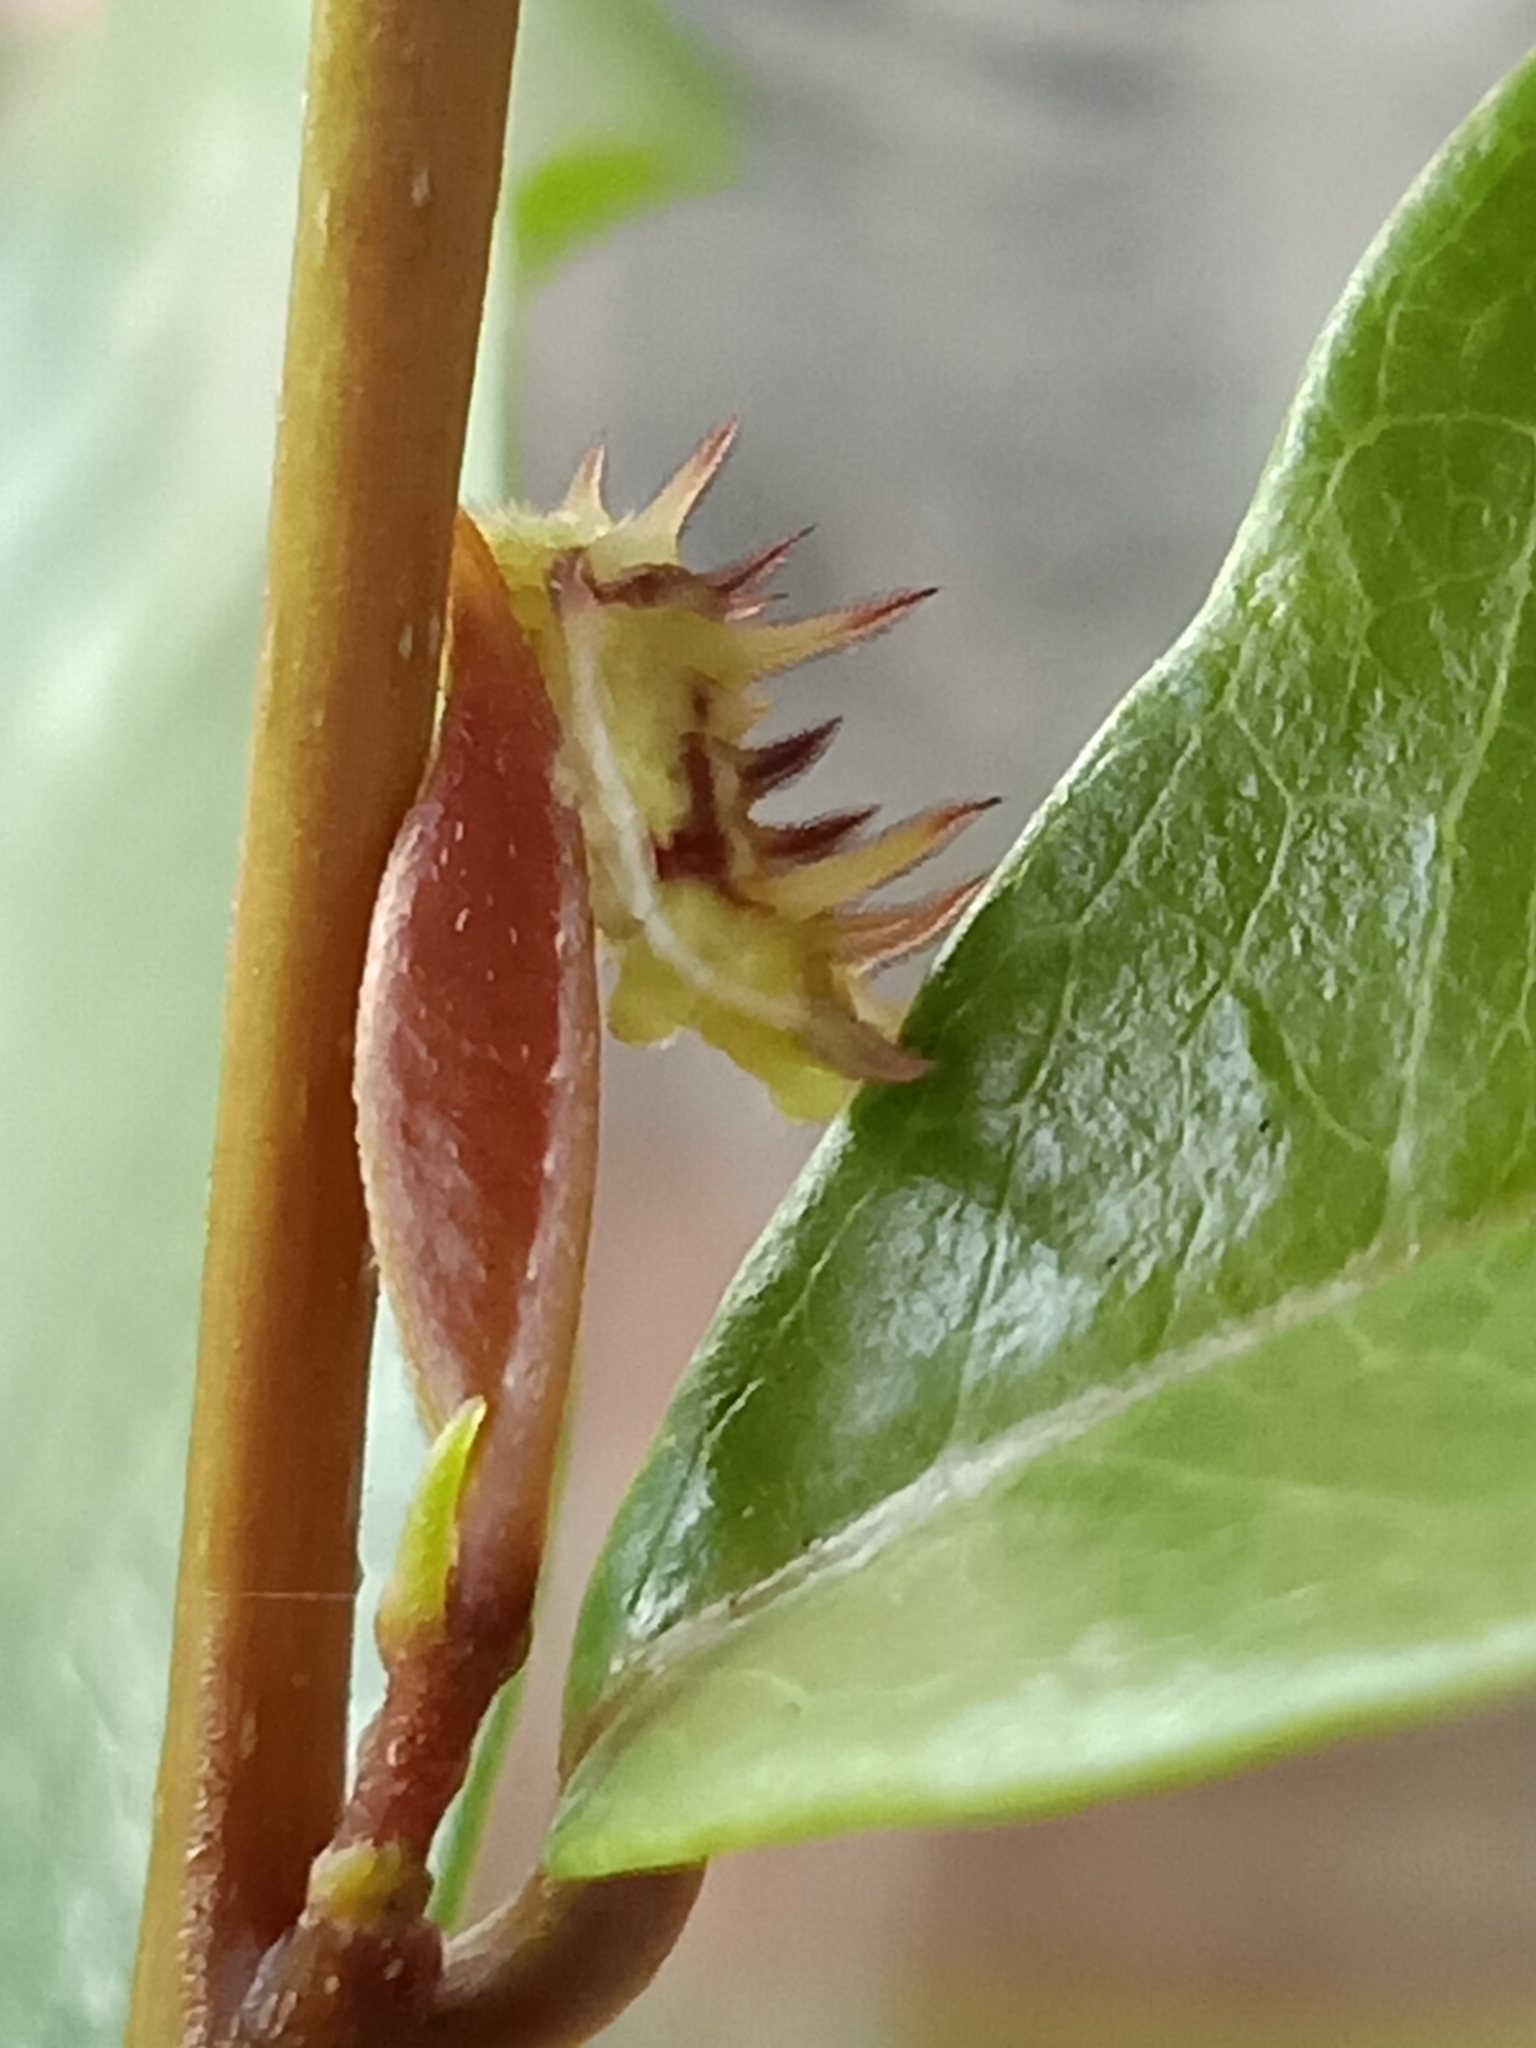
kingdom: Animalia
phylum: Arthropoda
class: Insecta
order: Lepidoptera
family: Lycaenidae
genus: Rathinda
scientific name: Rathinda amor
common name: Monkey puzzle
